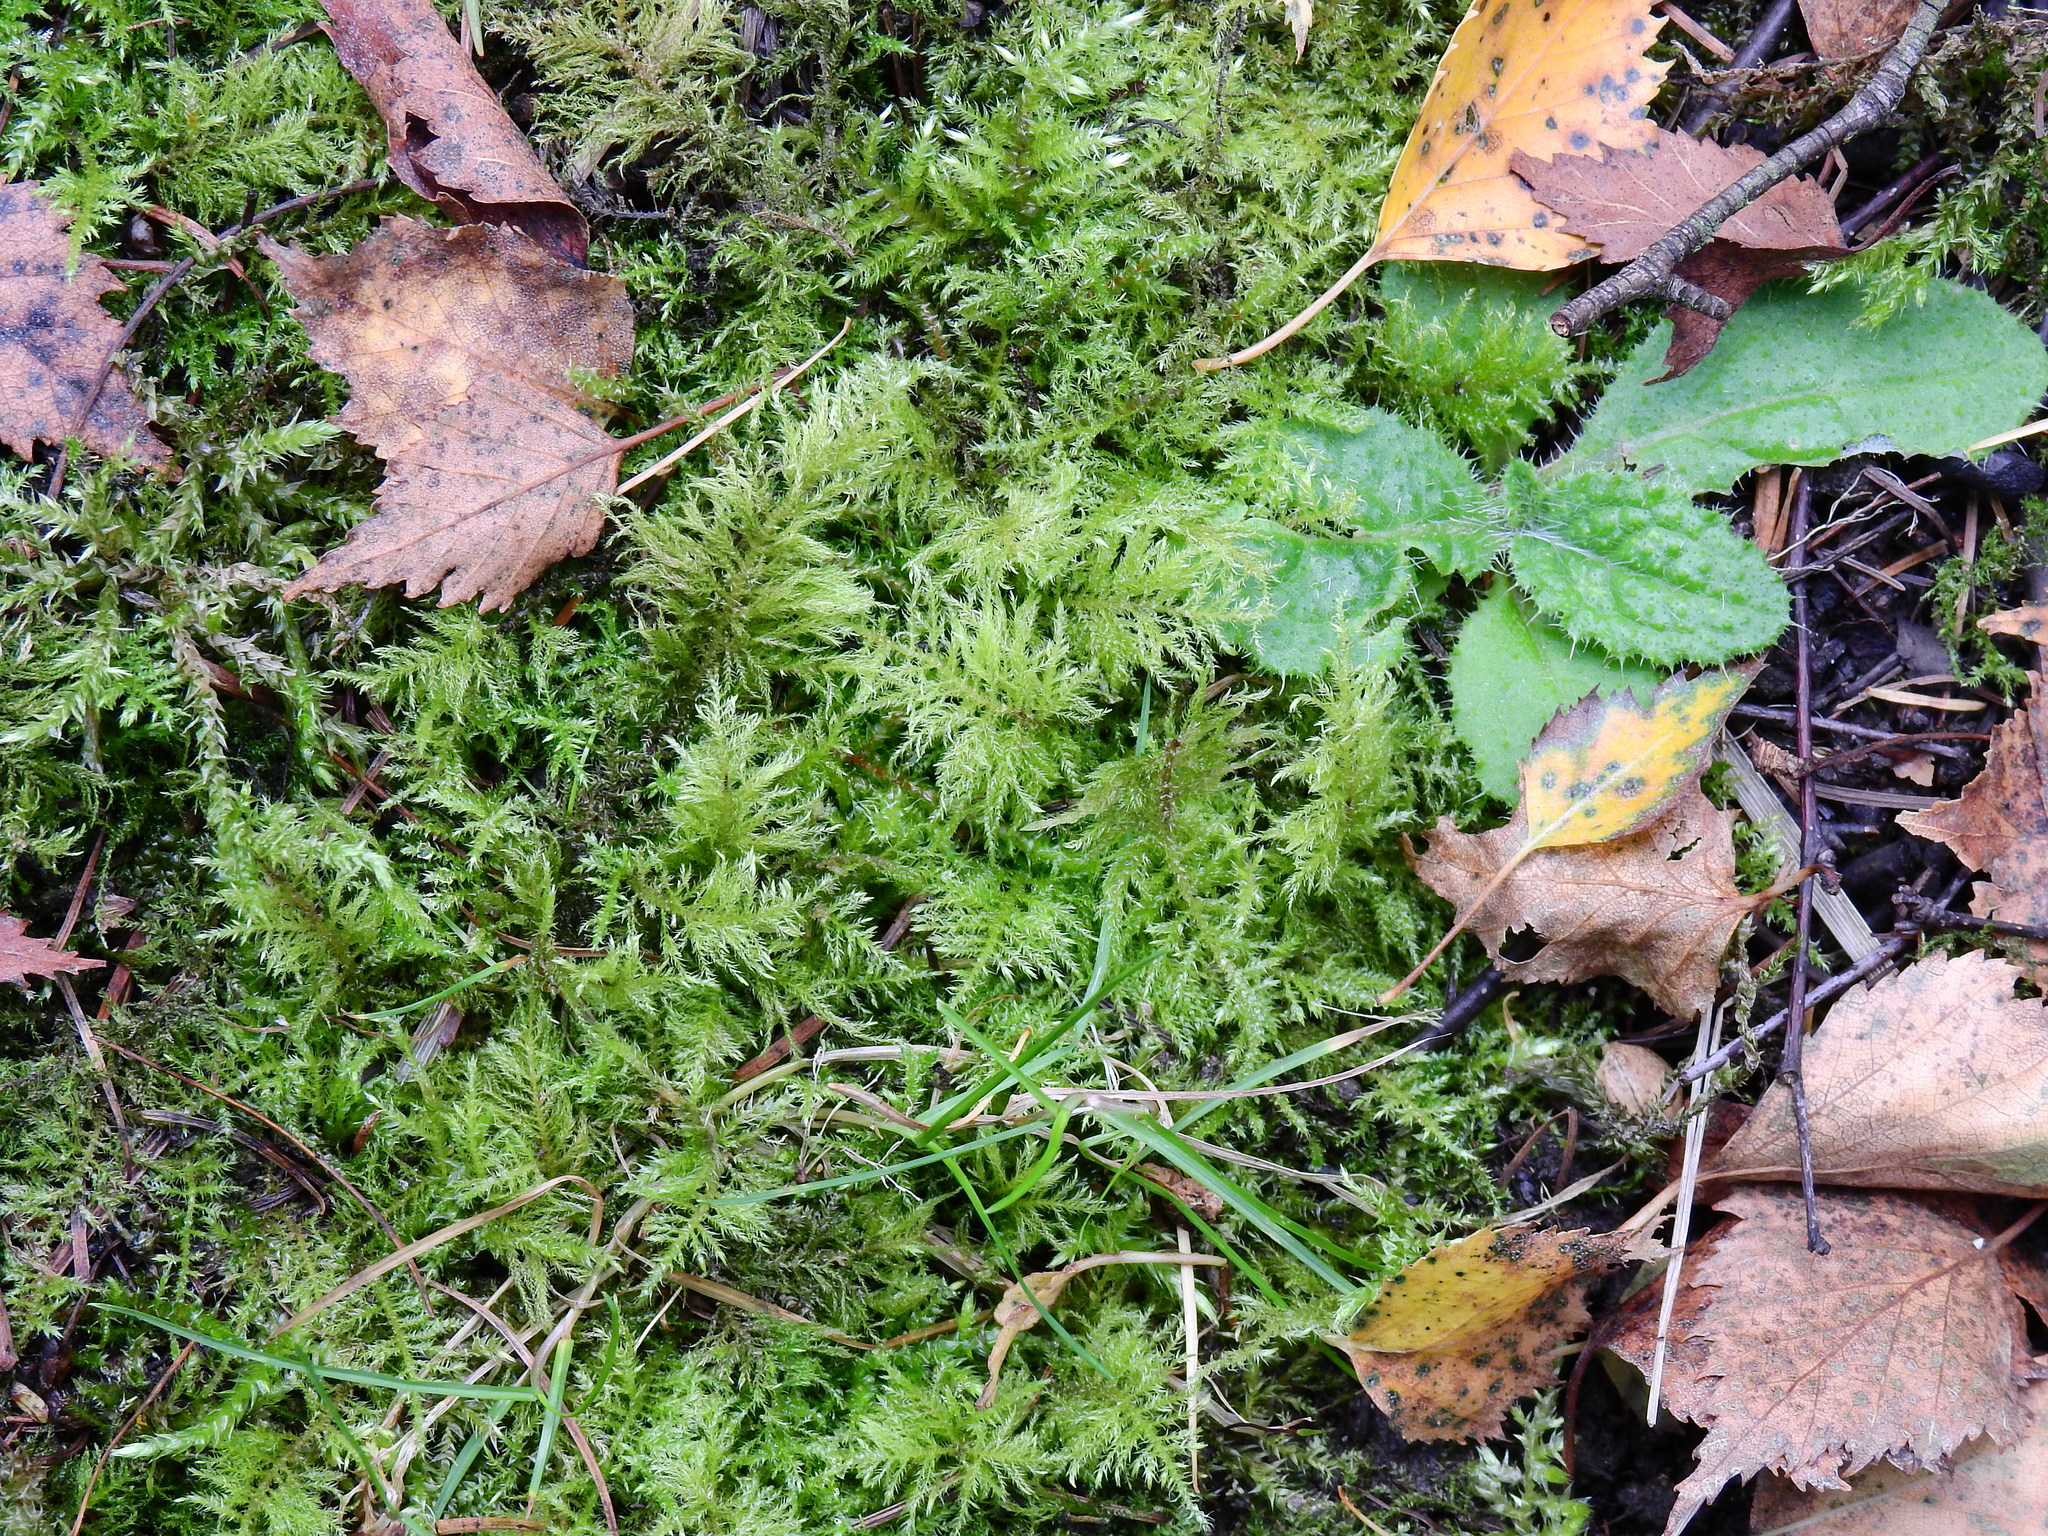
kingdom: Plantae
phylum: Bryophyta
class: Bryopsida
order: Hypnales
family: Brachytheciaceae
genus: Kindbergia
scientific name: Kindbergia praelonga
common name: Slender beaked moss
